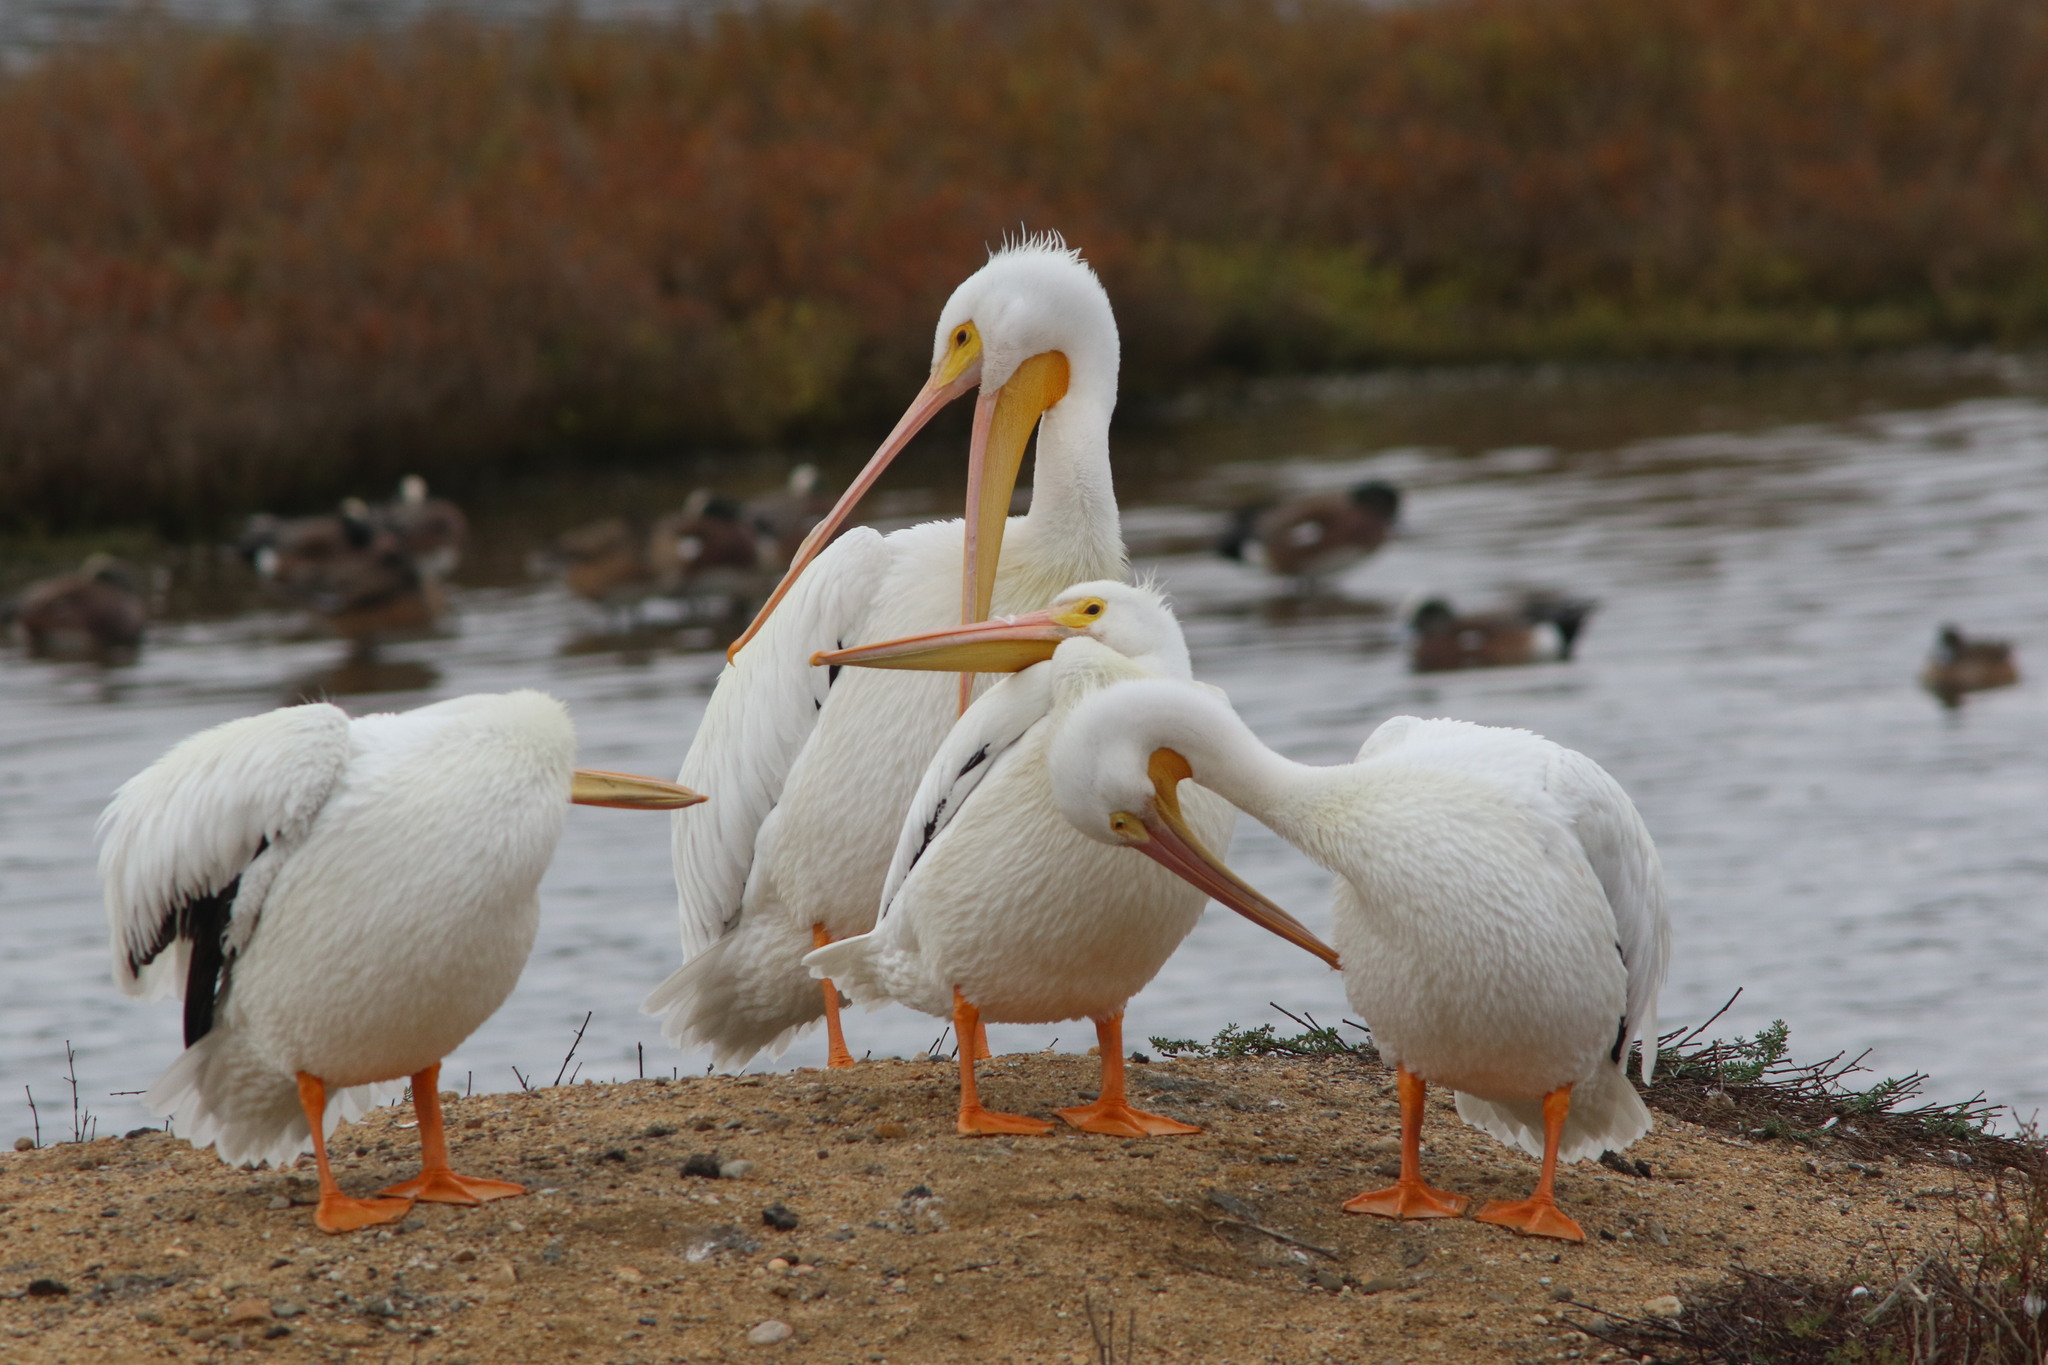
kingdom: Animalia
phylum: Chordata
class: Aves
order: Pelecaniformes
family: Pelecanidae
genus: Pelecanus
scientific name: Pelecanus erythrorhynchos
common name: American white pelican
